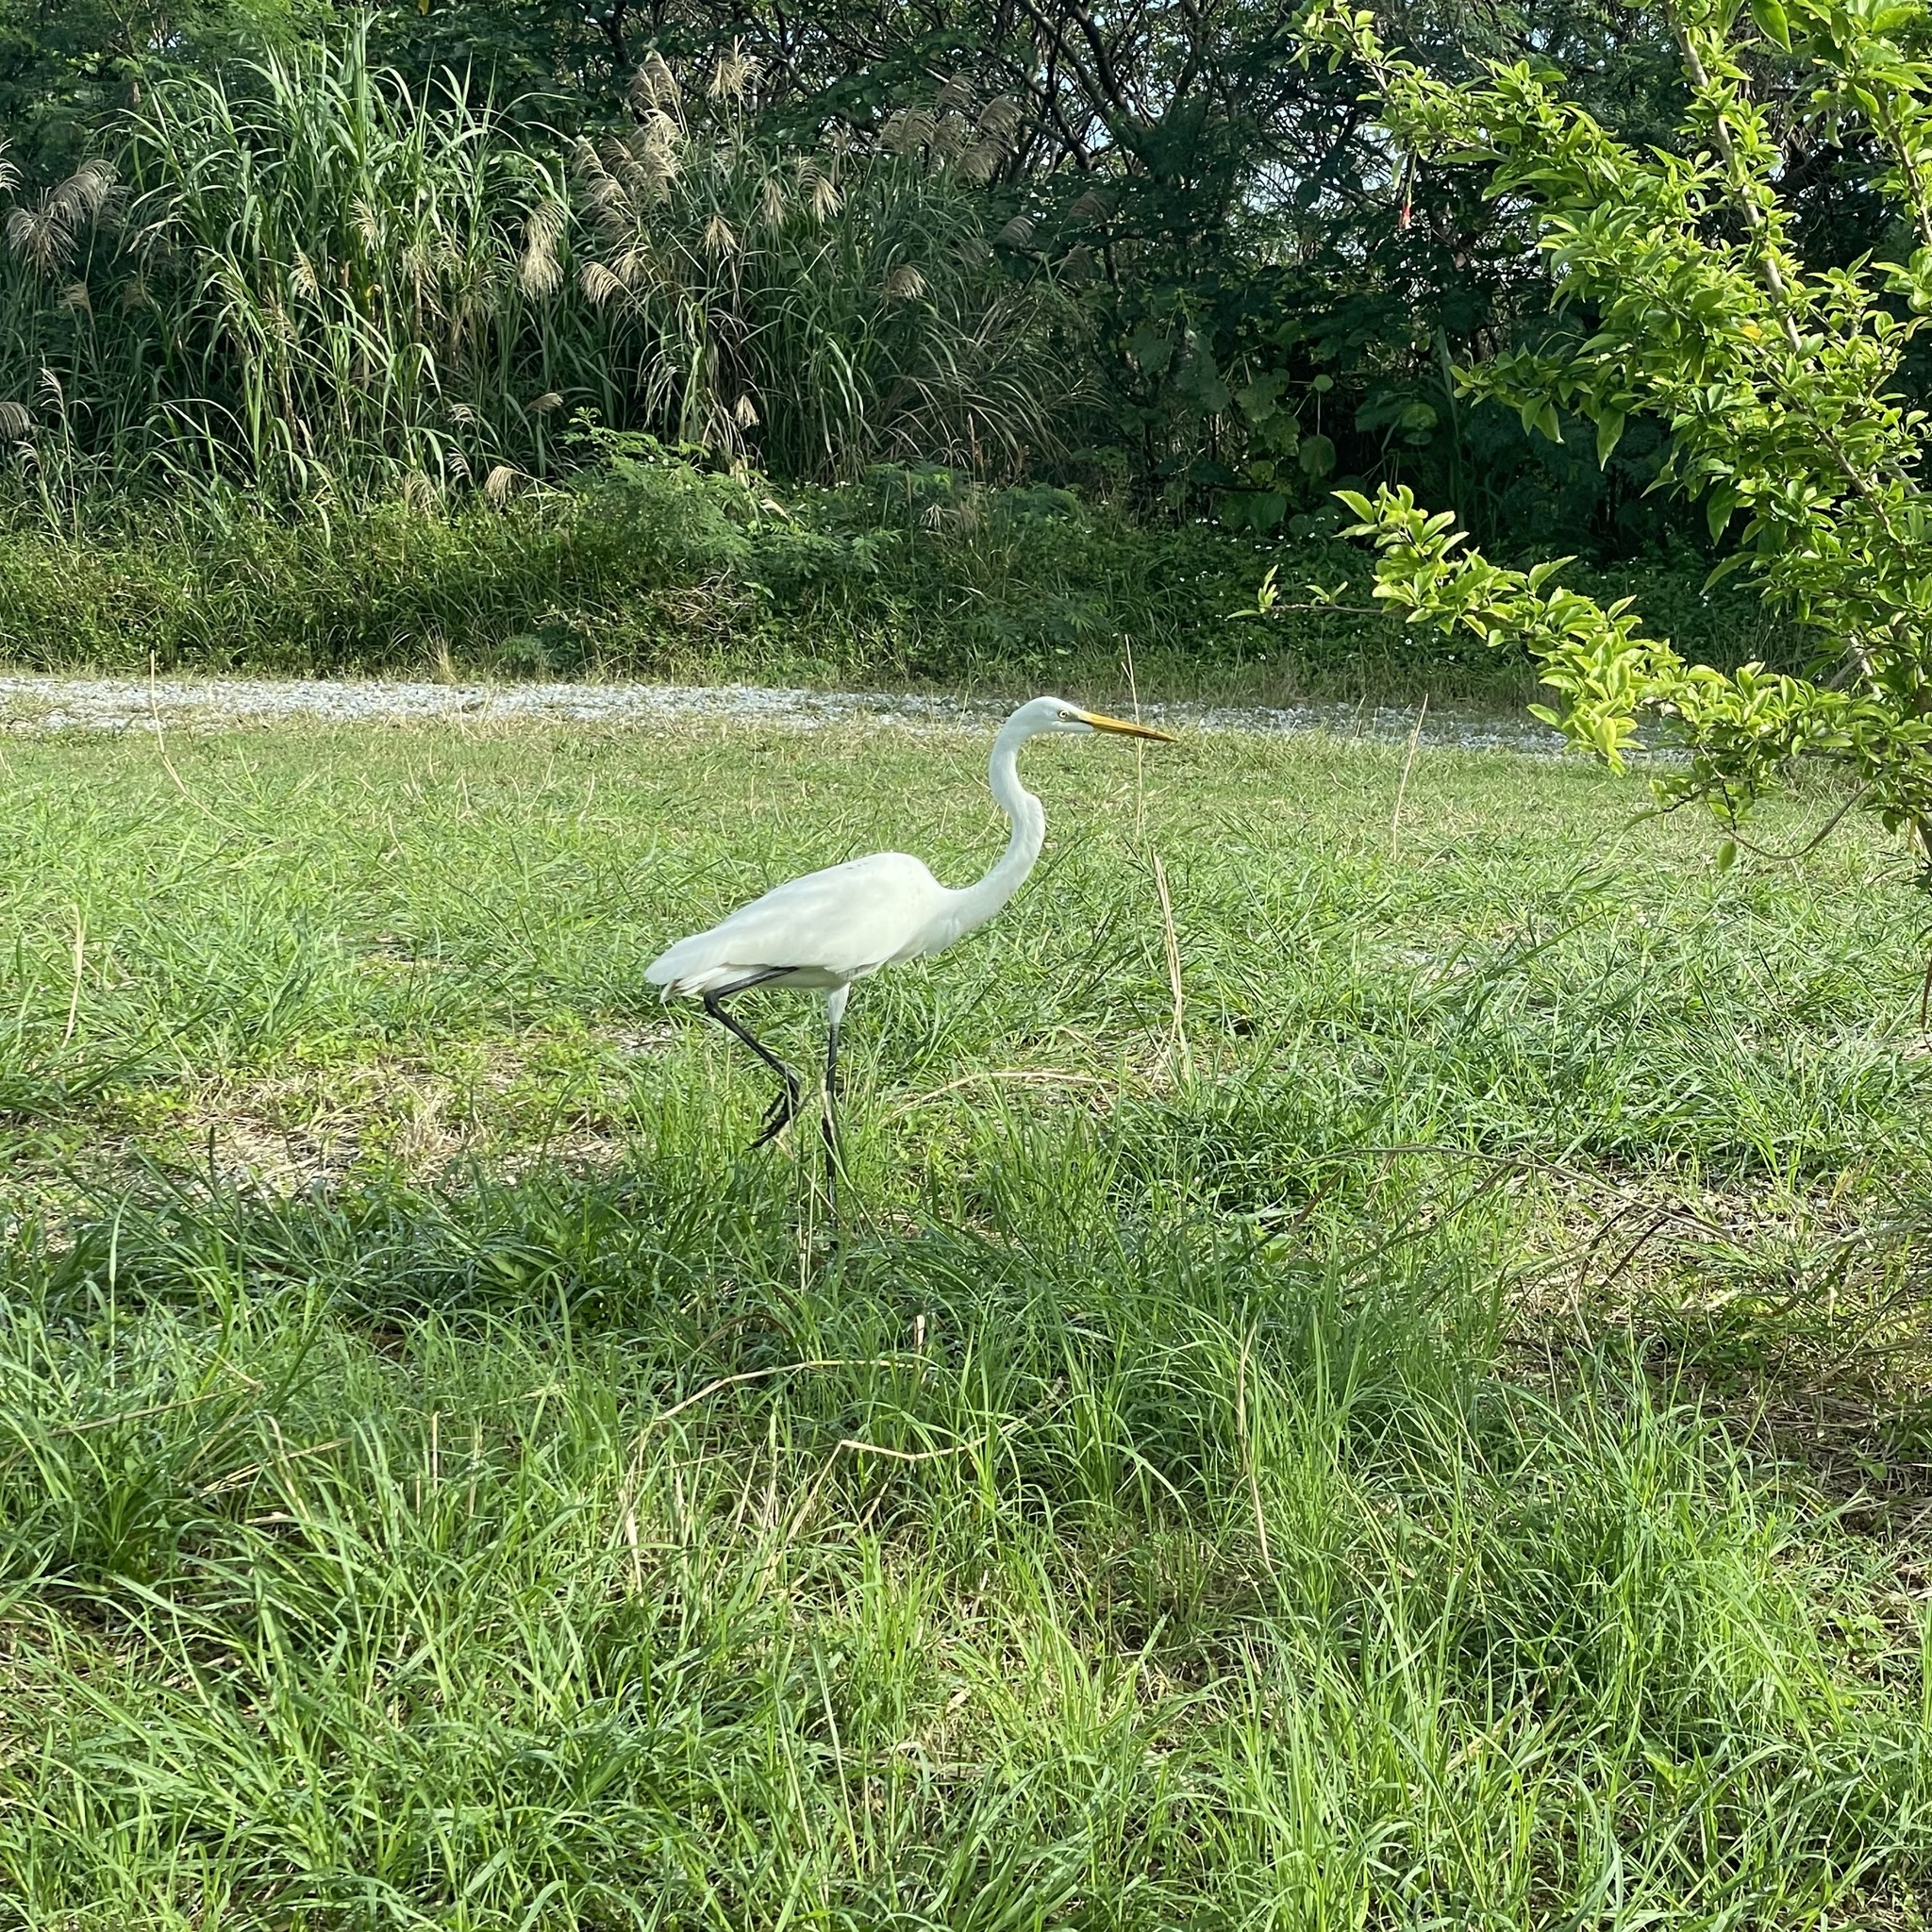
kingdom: Animalia
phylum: Chordata
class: Aves
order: Pelecaniformes
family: Ardeidae
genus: Ardea
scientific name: Ardea modesta
